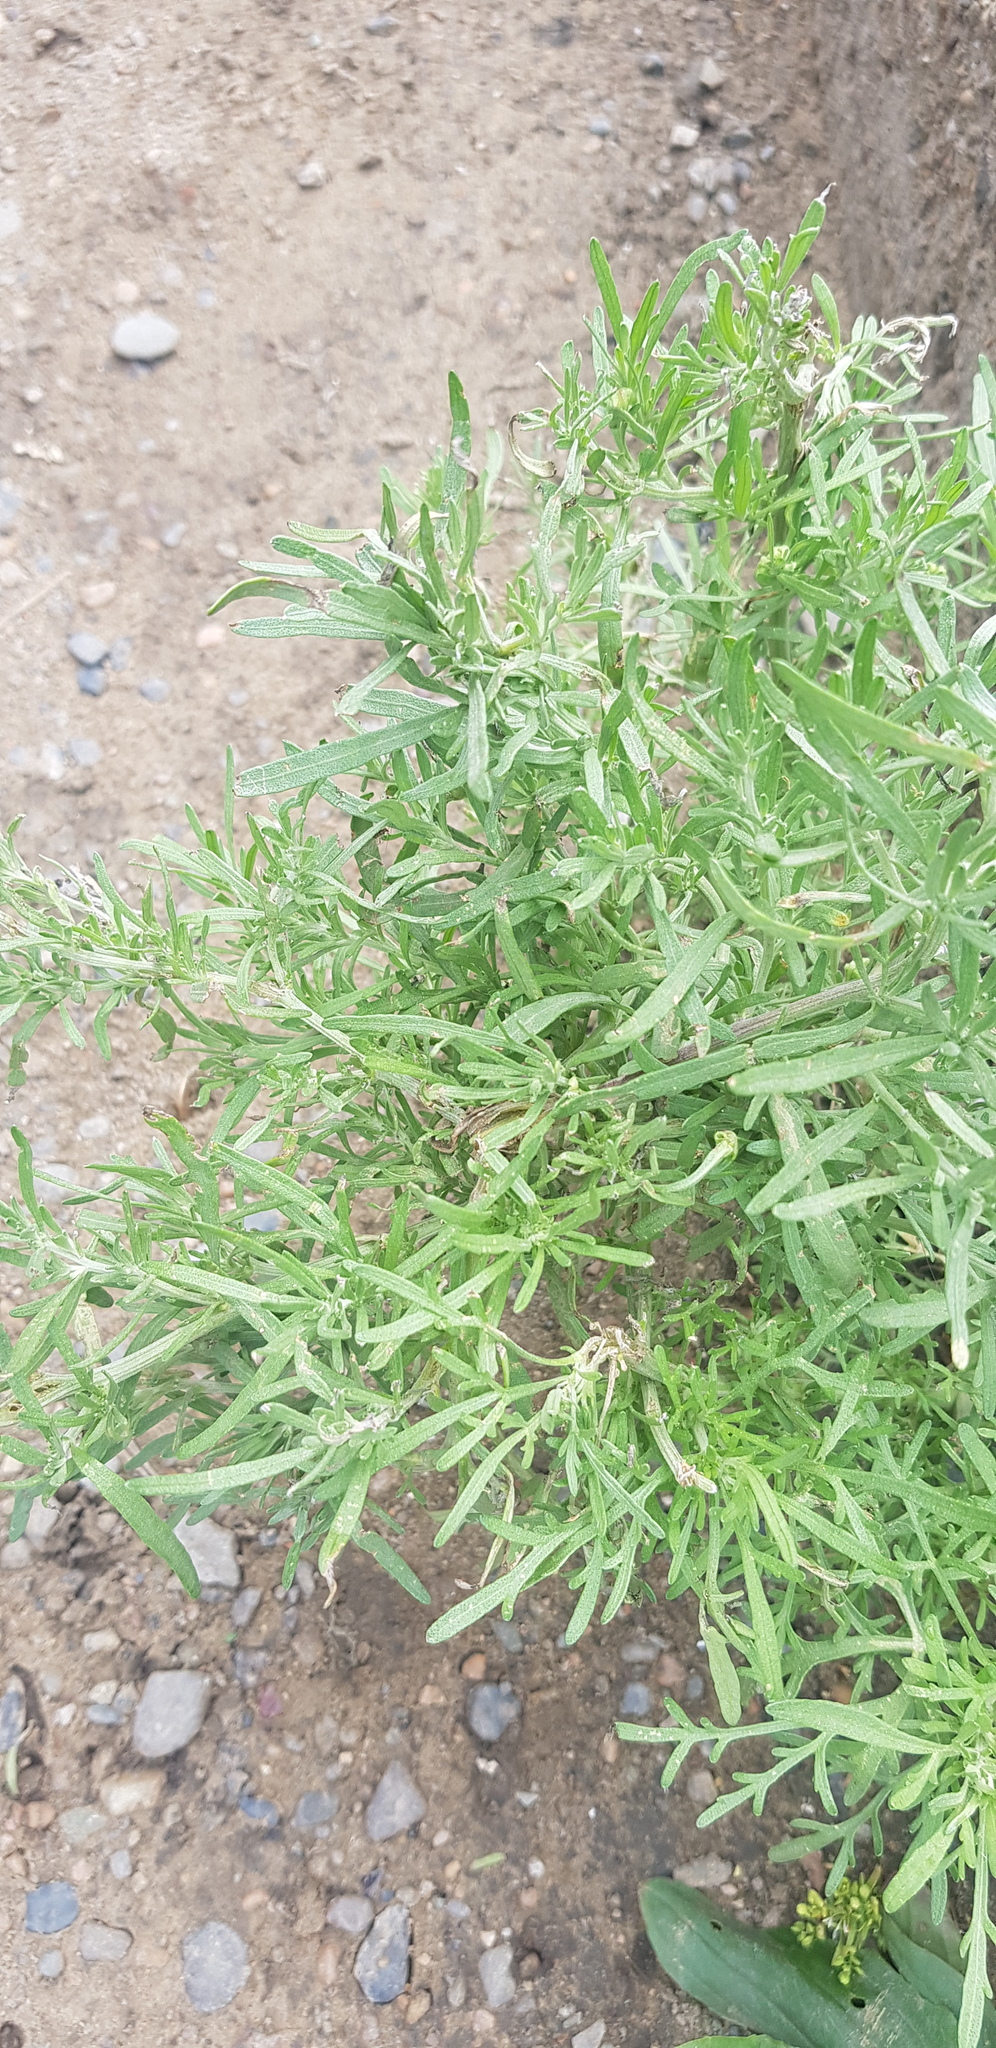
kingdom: Plantae
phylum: Tracheophyta
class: Magnoliopsida
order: Asterales
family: Asteraceae
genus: Artemisia
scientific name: Artemisia sieversiana
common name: Sieversian wormwood
